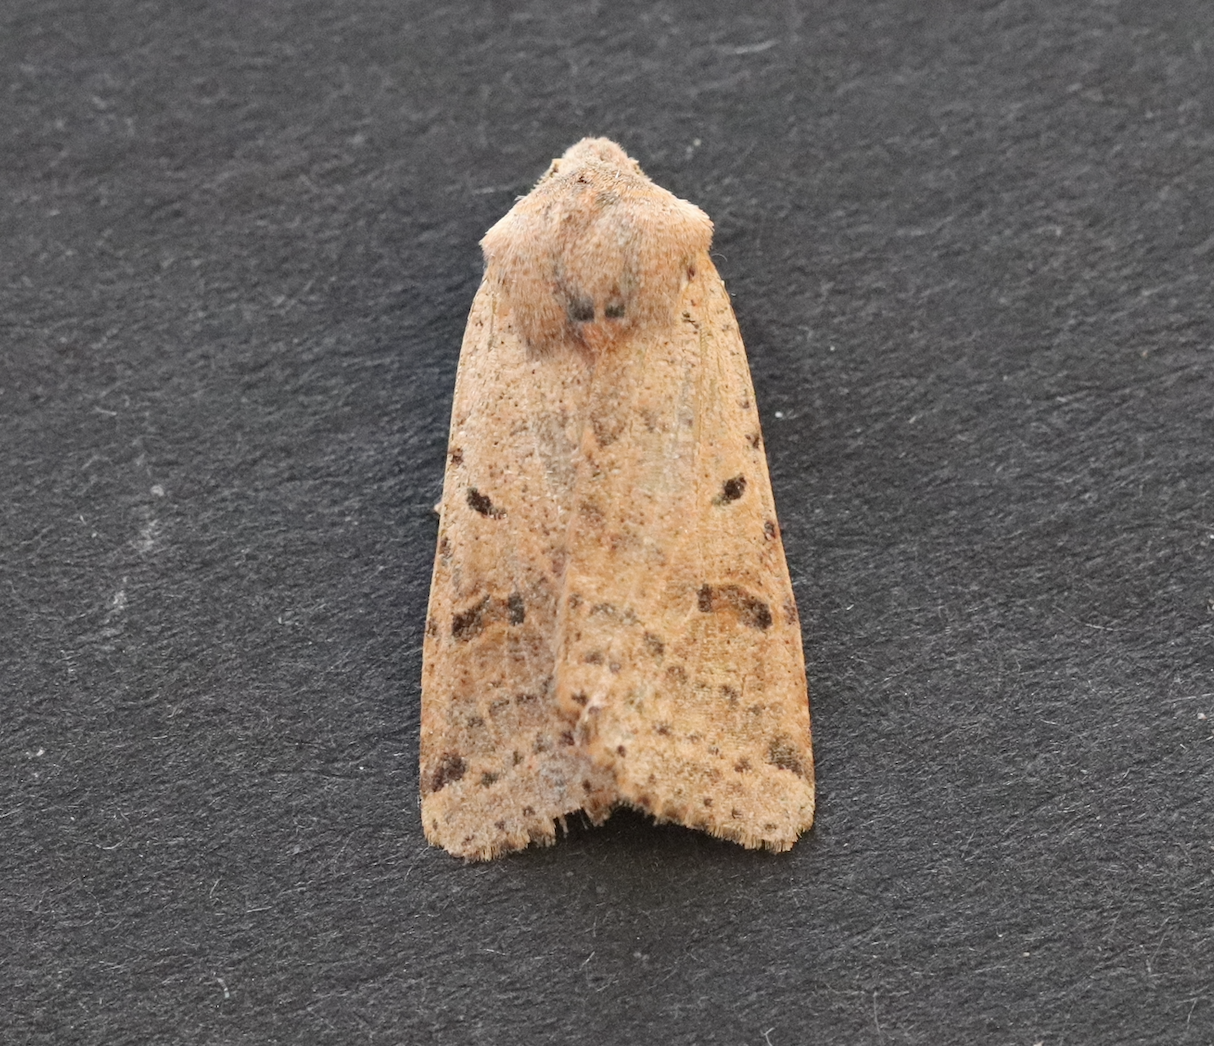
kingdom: Animalia
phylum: Arthropoda
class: Insecta
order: Lepidoptera
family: Noctuidae
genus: Agrochola
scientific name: Agrochola lychnidis
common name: Beaded chestnut
